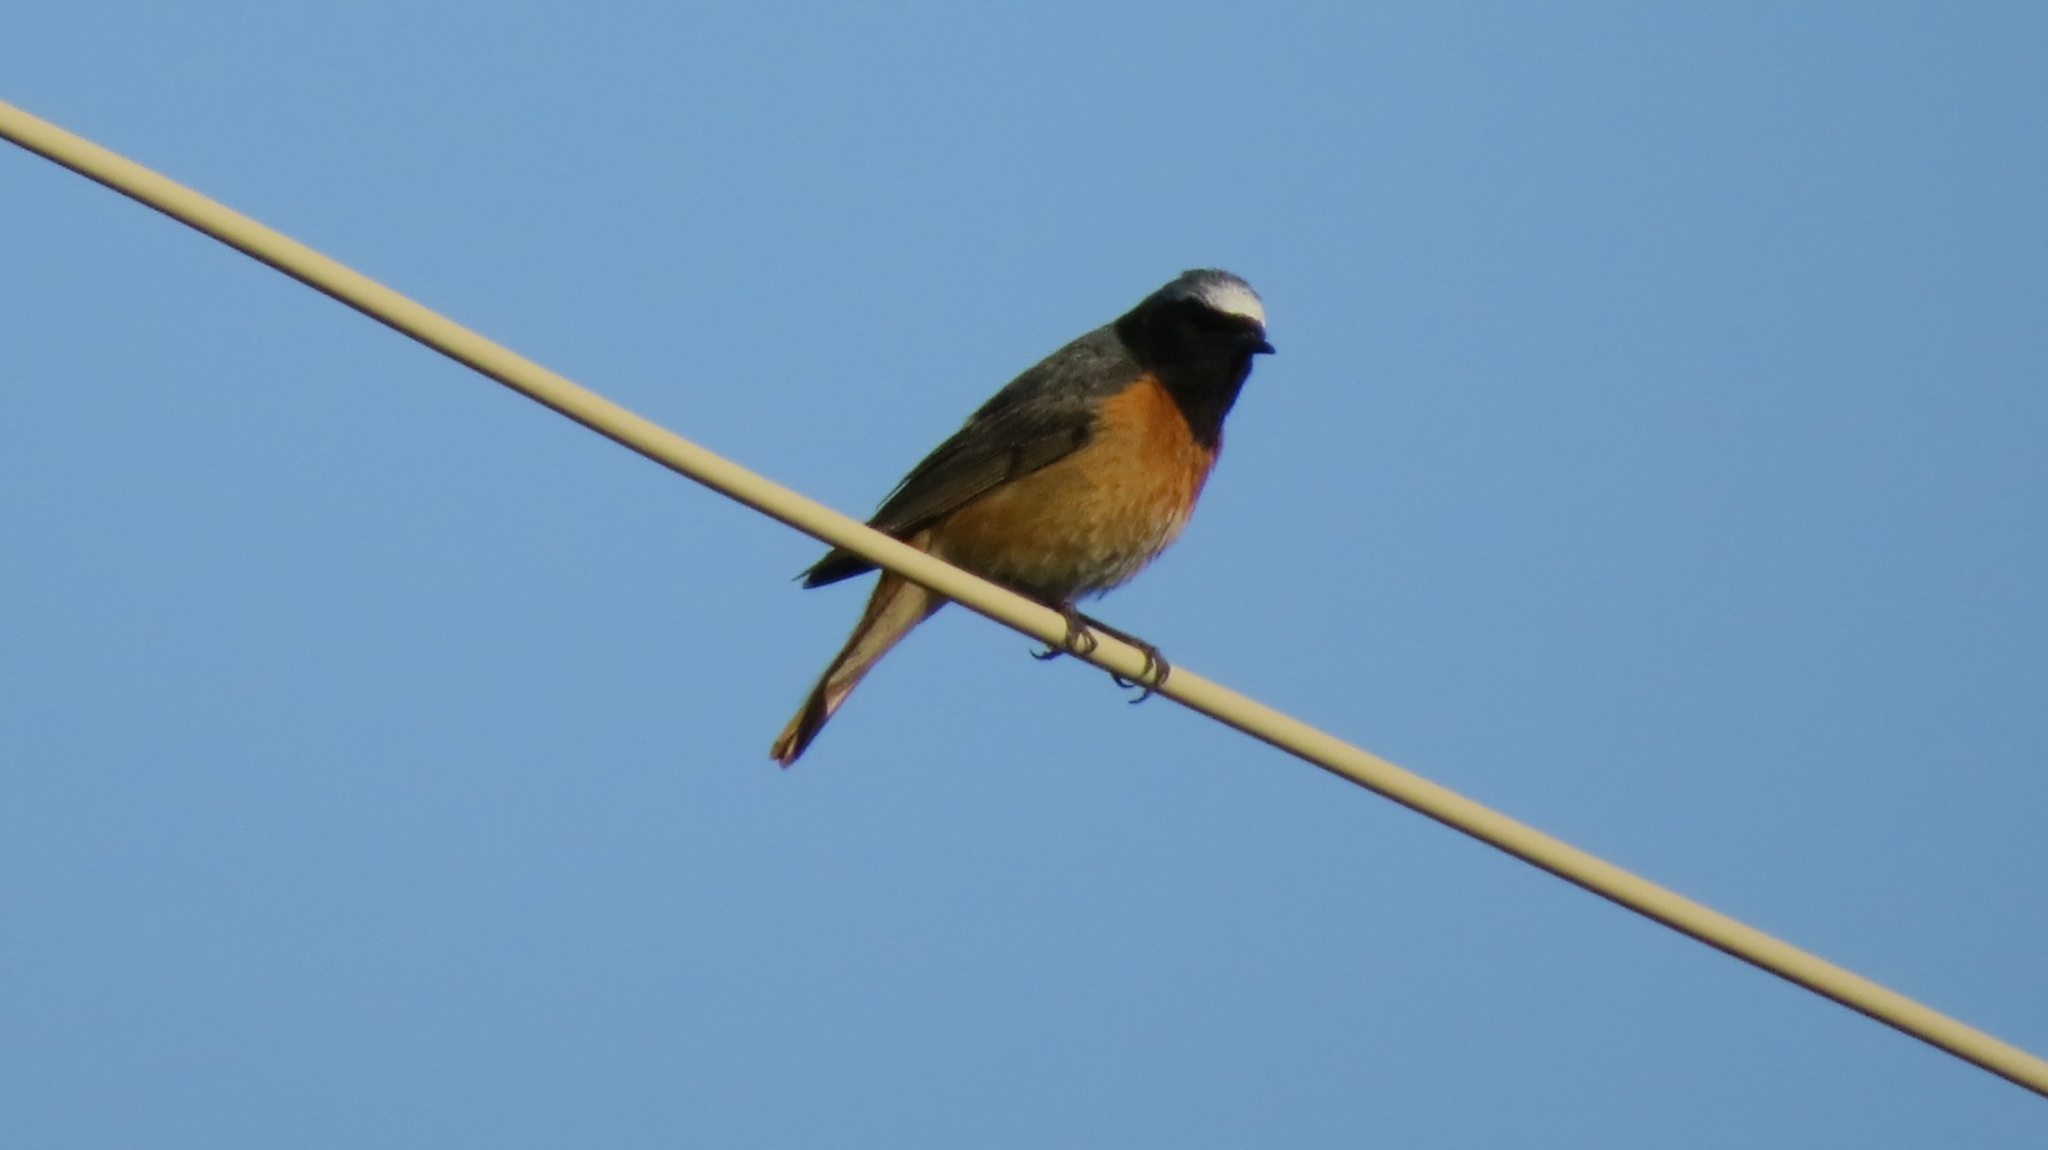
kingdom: Animalia
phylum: Chordata
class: Aves
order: Passeriformes
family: Muscicapidae
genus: Phoenicurus
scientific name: Phoenicurus phoenicurus
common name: Common redstart
